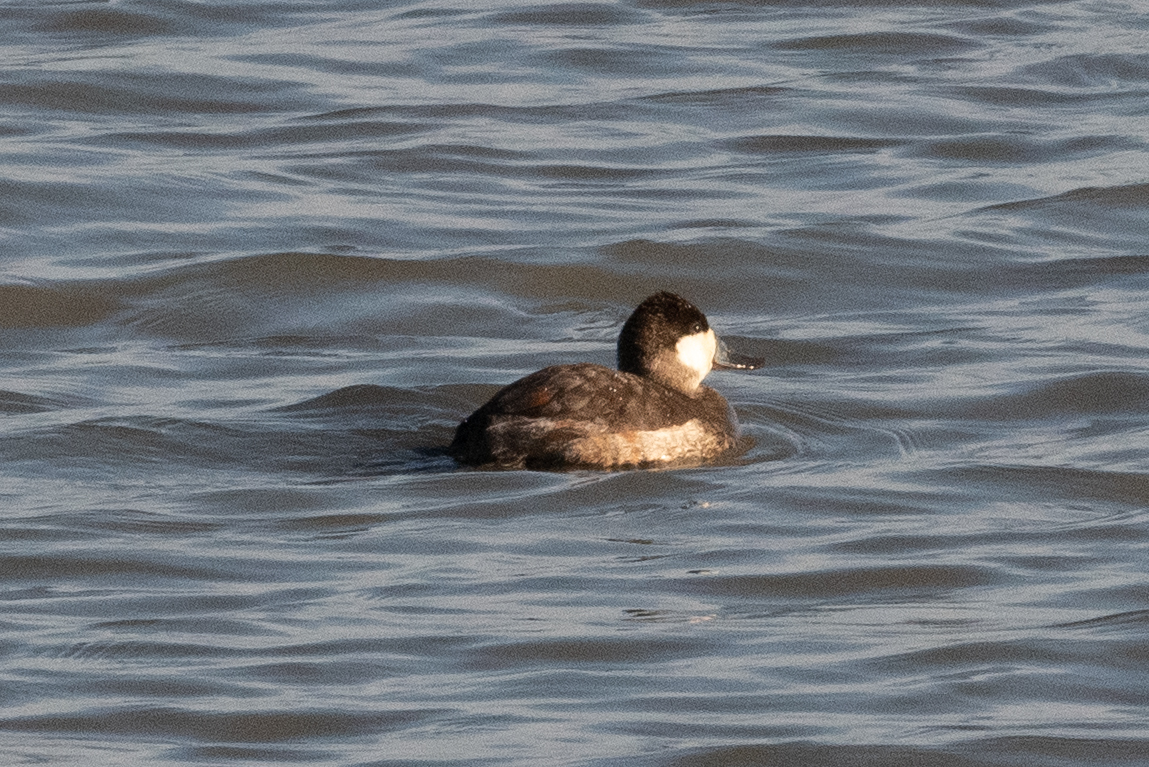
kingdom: Animalia
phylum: Chordata
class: Aves
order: Anseriformes
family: Anatidae
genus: Oxyura
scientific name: Oxyura jamaicensis
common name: Ruddy duck
